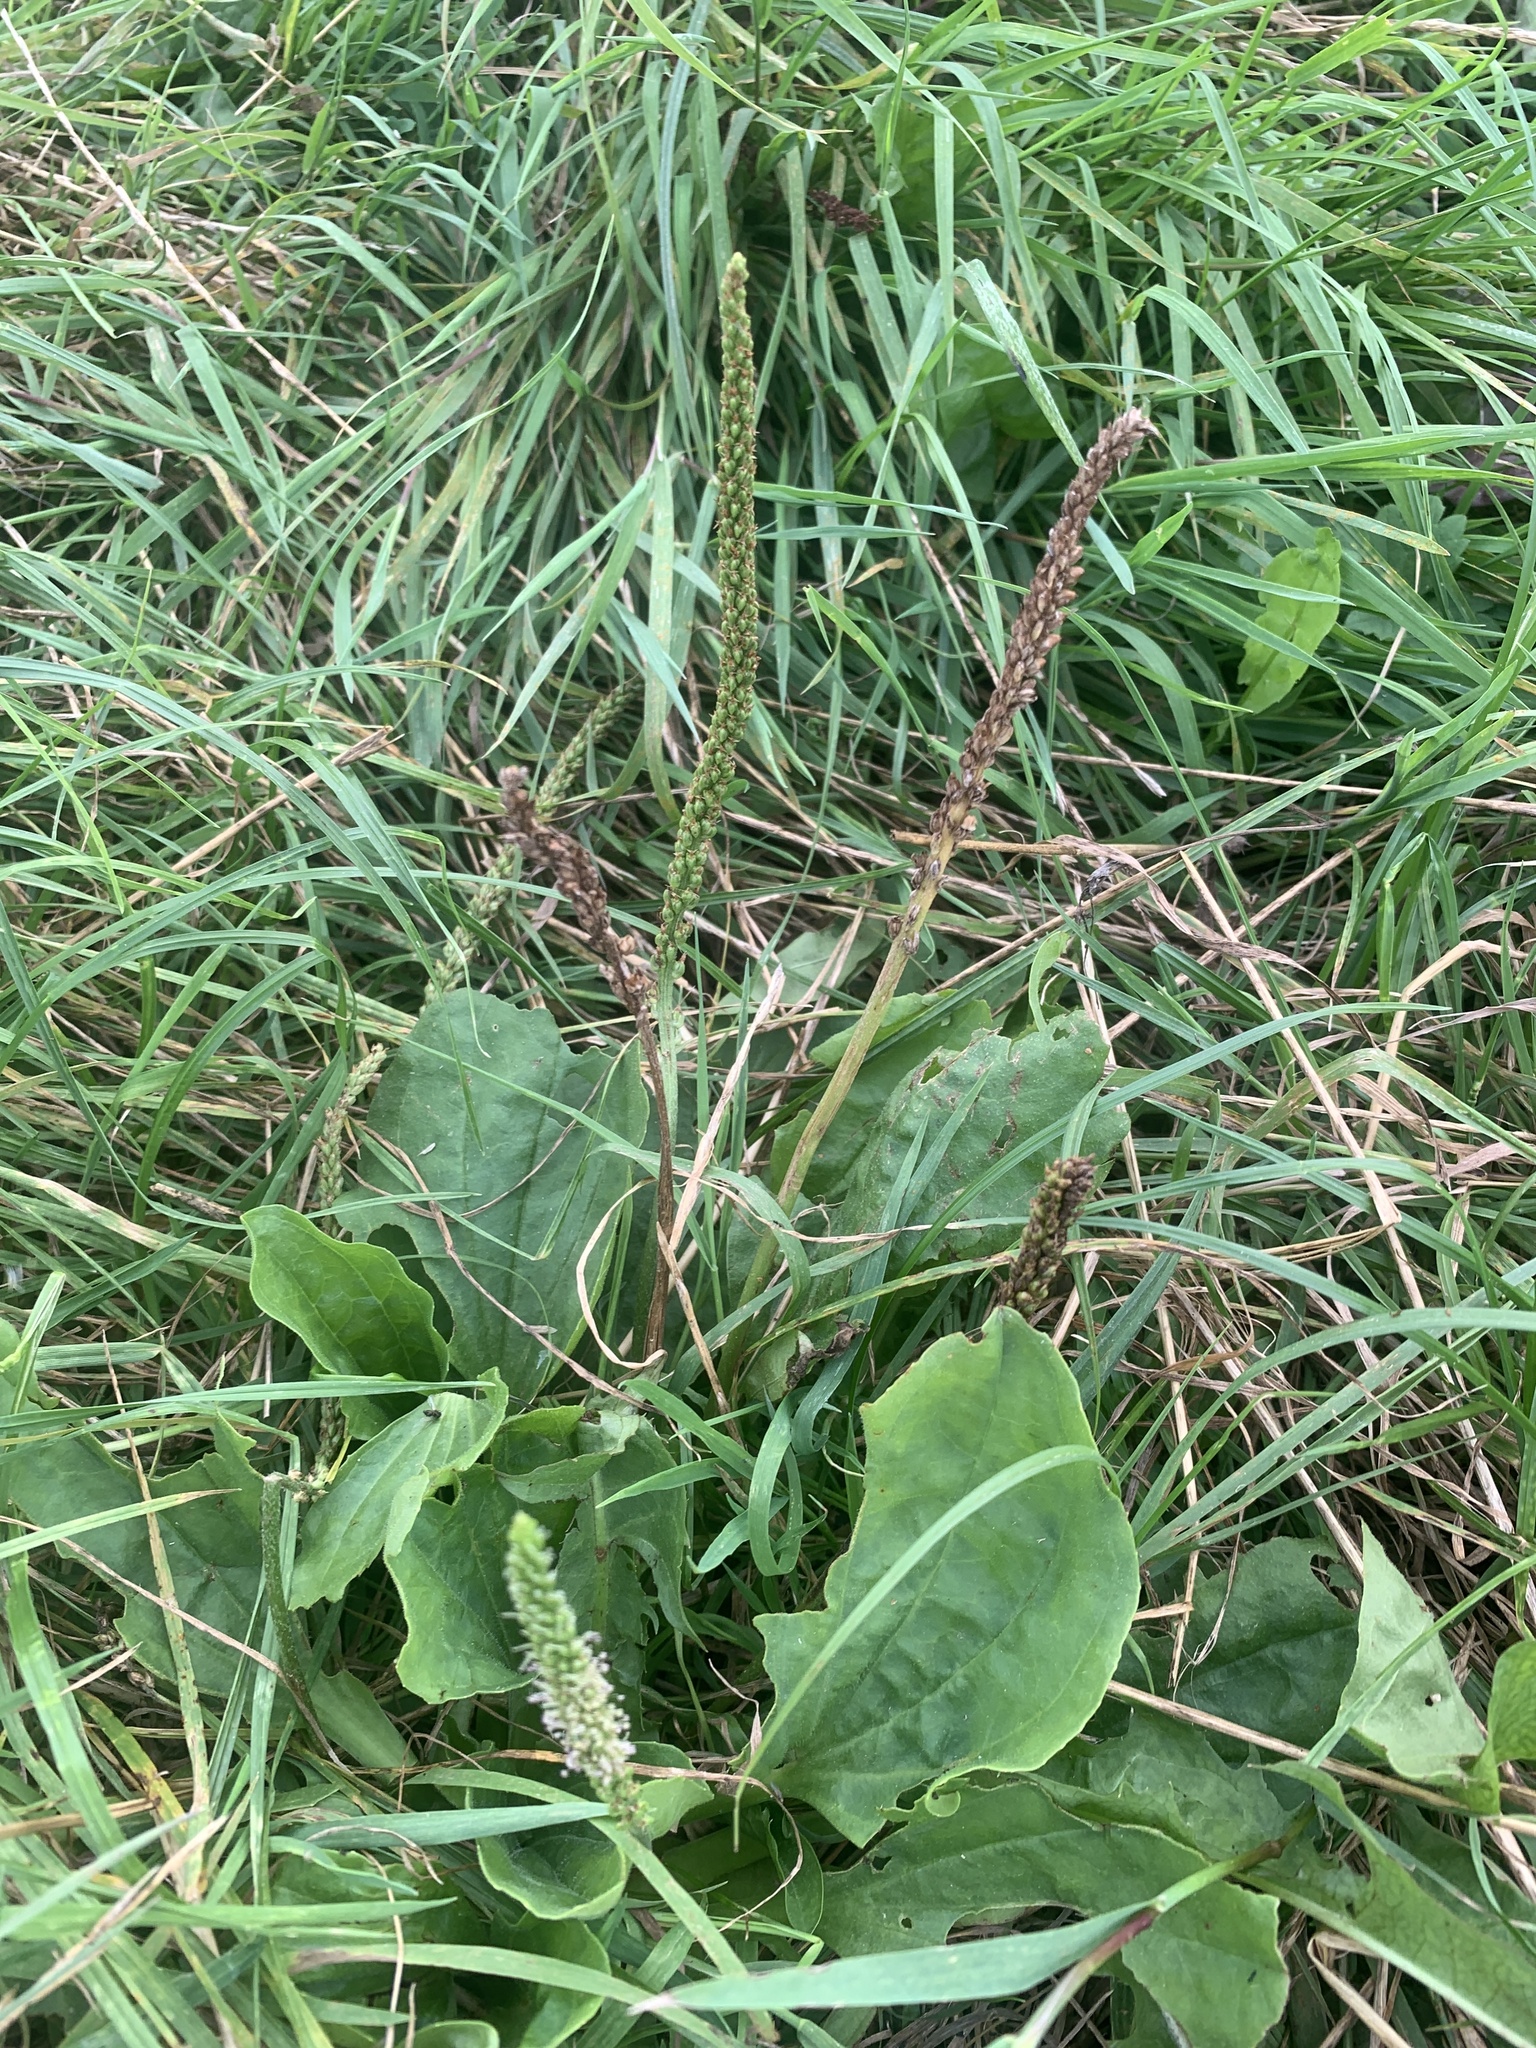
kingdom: Plantae
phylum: Tracheophyta
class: Magnoliopsida
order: Lamiales
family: Plantaginaceae
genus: Plantago
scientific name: Plantago major
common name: Common plantain
